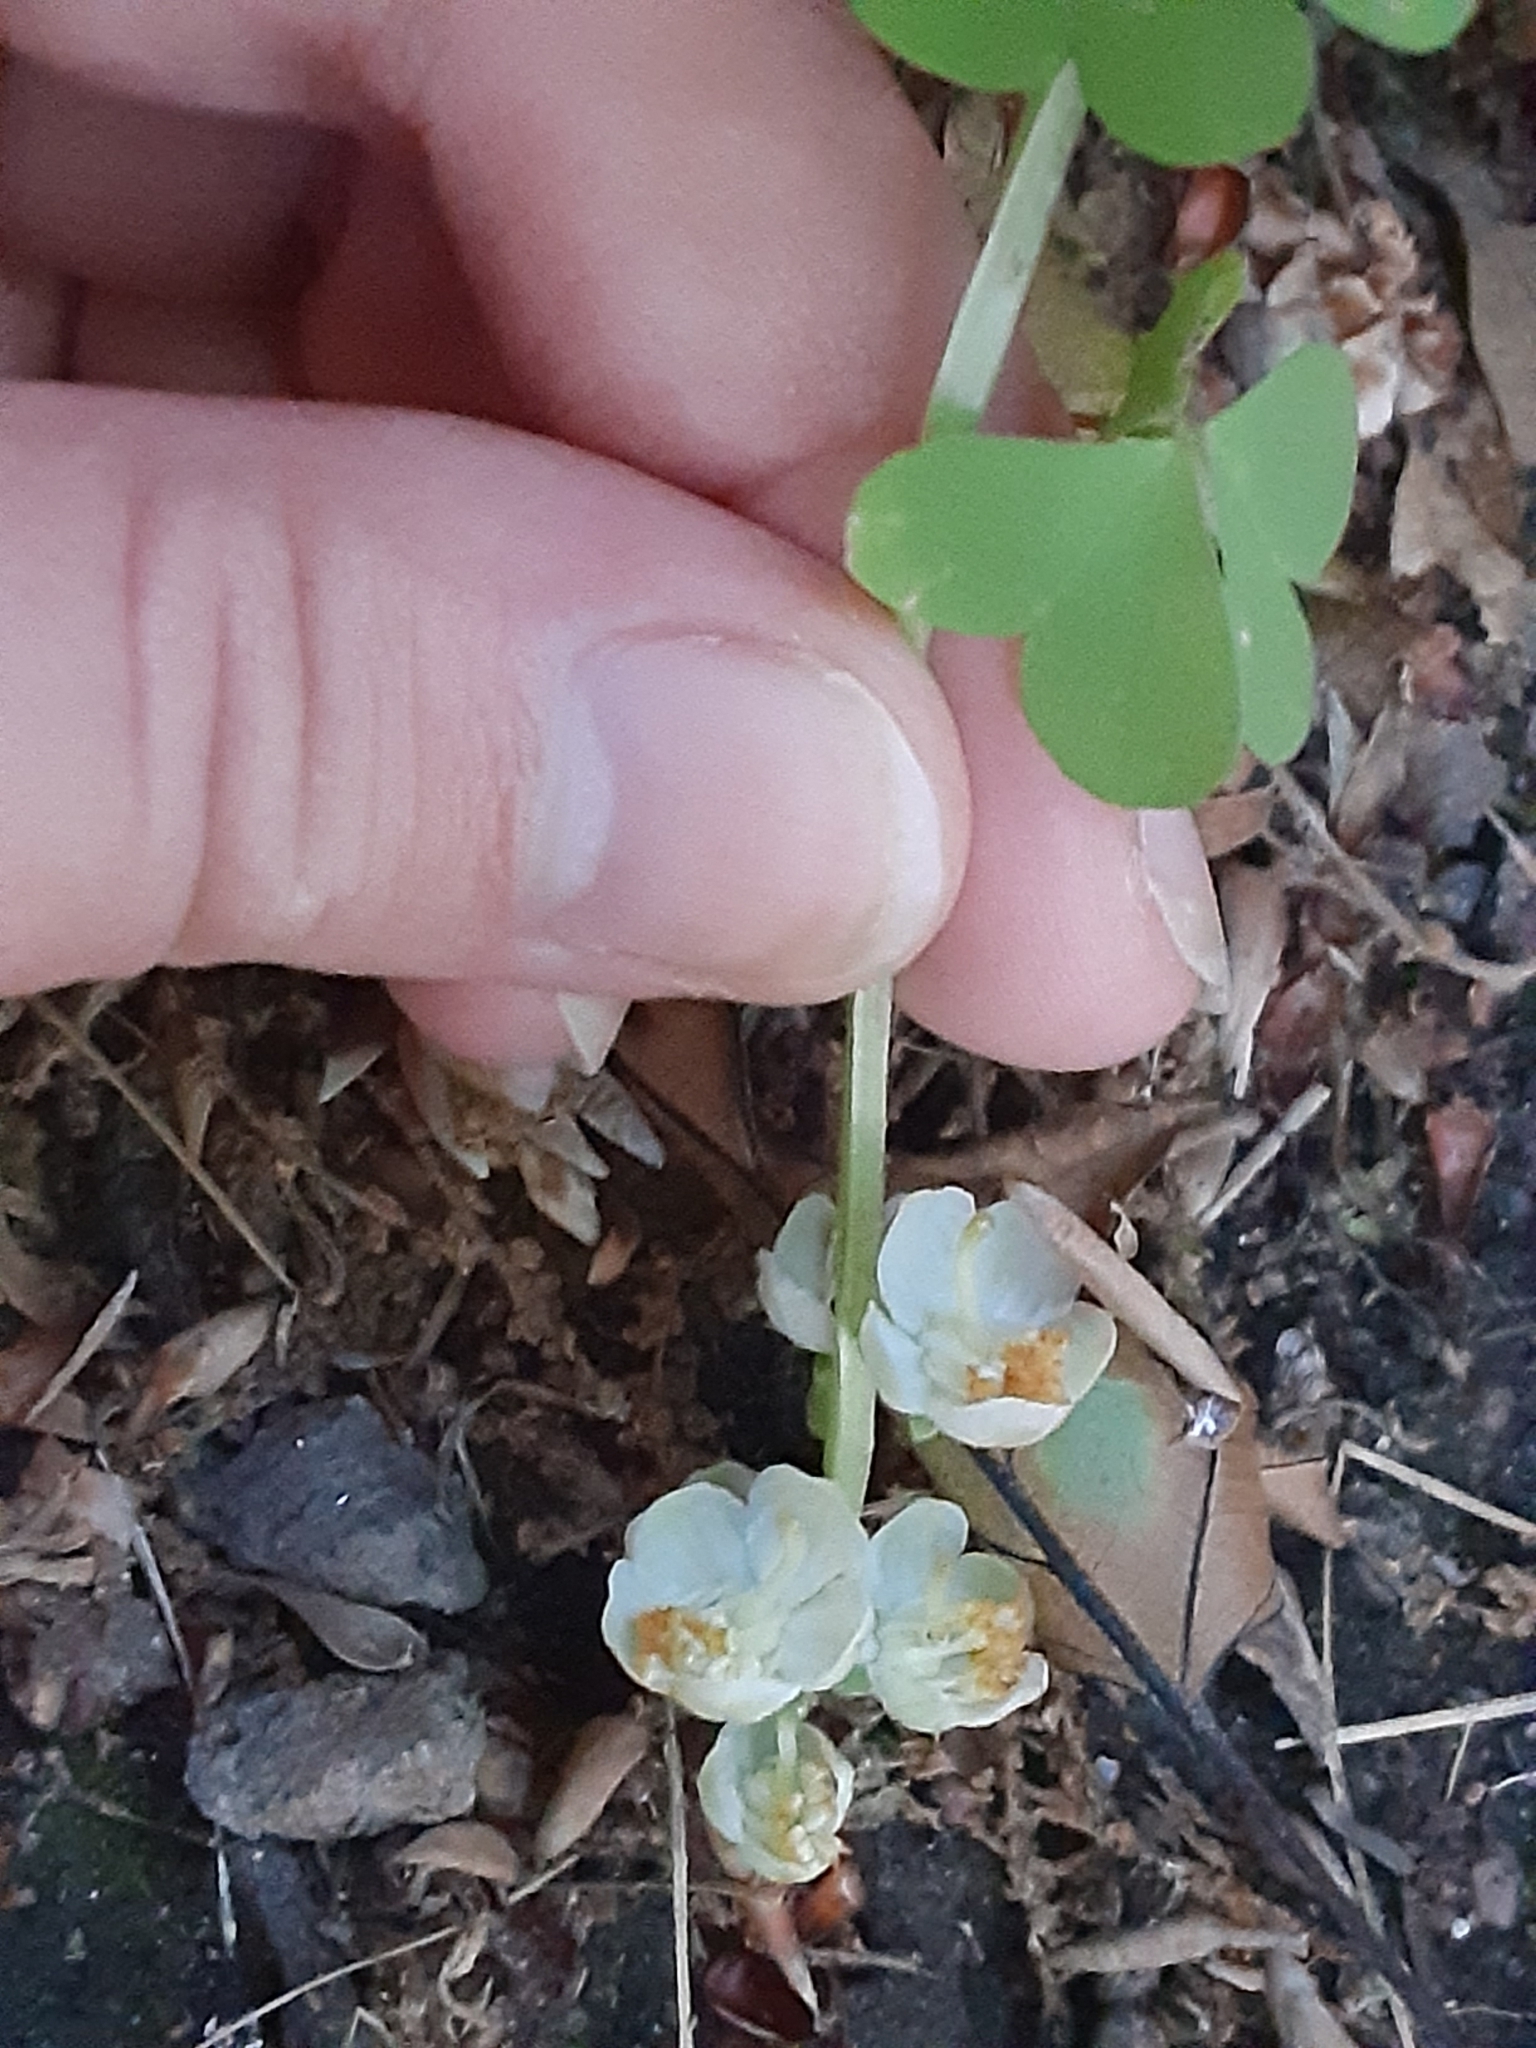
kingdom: Plantae
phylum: Tracheophyta
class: Magnoliopsida
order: Ericales
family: Ericaceae
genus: Pyrola
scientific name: Pyrola americana
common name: American wintergreen
